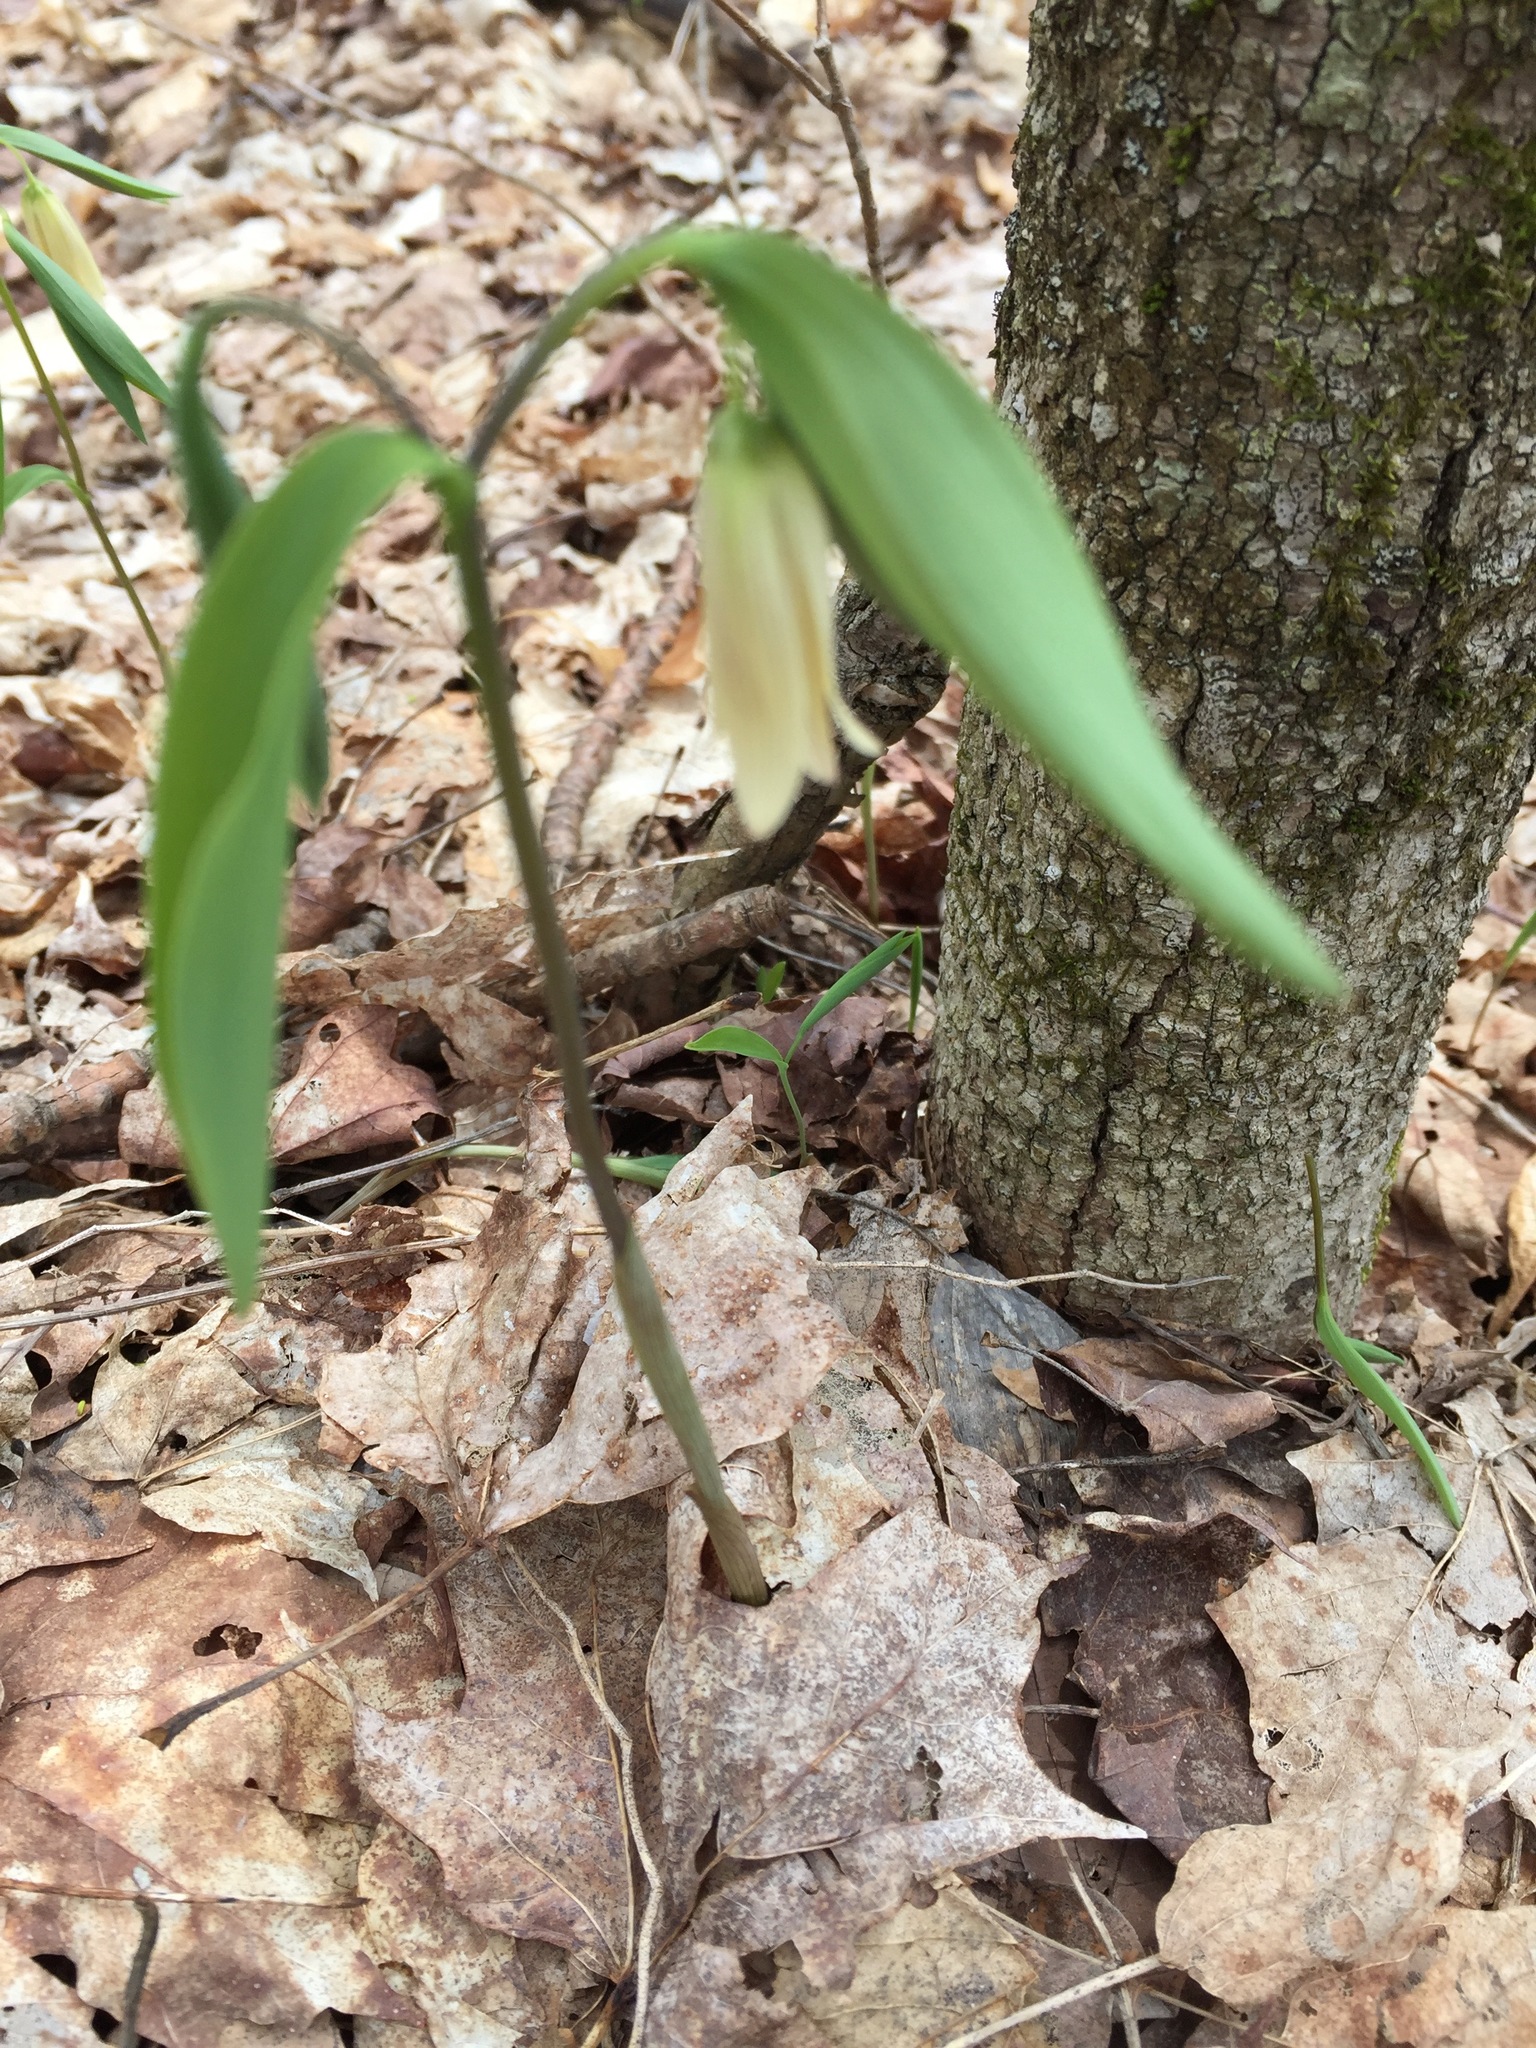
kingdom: Plantae
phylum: Tracheophyta
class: Liliopsida
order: Liliales
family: Colchicaceae
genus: Uvularia
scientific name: Uvularia sessilifolia
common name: Straw-lily
